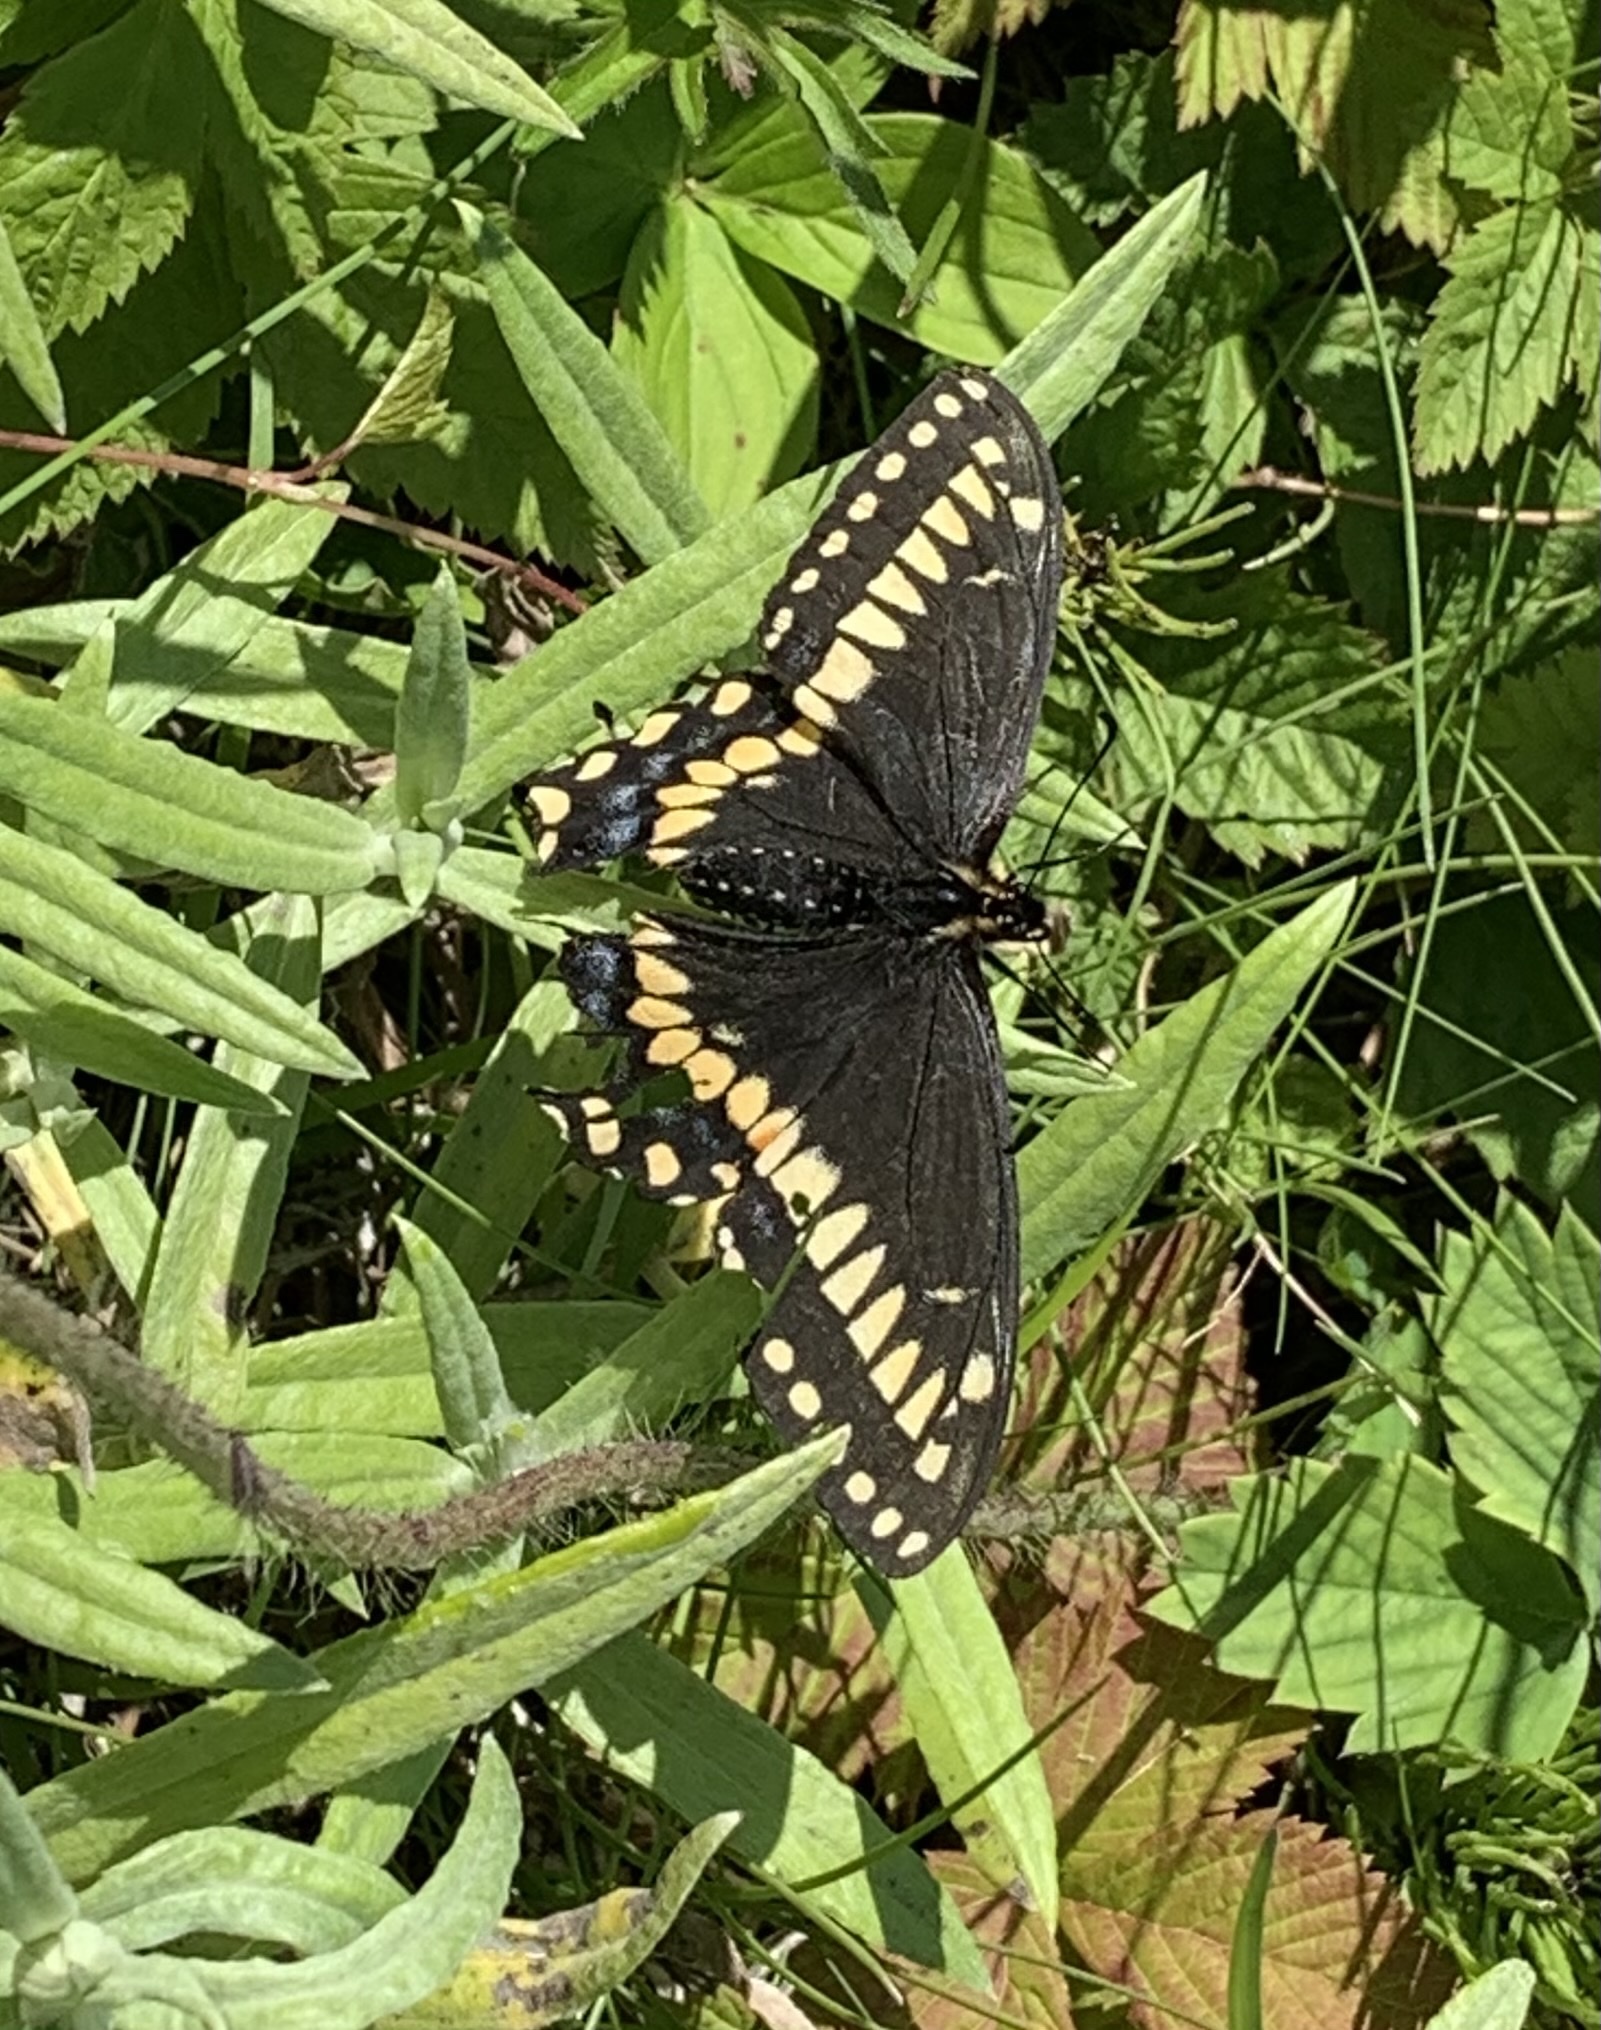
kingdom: Animalia
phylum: Arthropoda
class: Insecta
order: Lepidoptera
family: Papilionidae
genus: Papilio
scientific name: Papilio brevicauda
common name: Short tailed swallowtail
